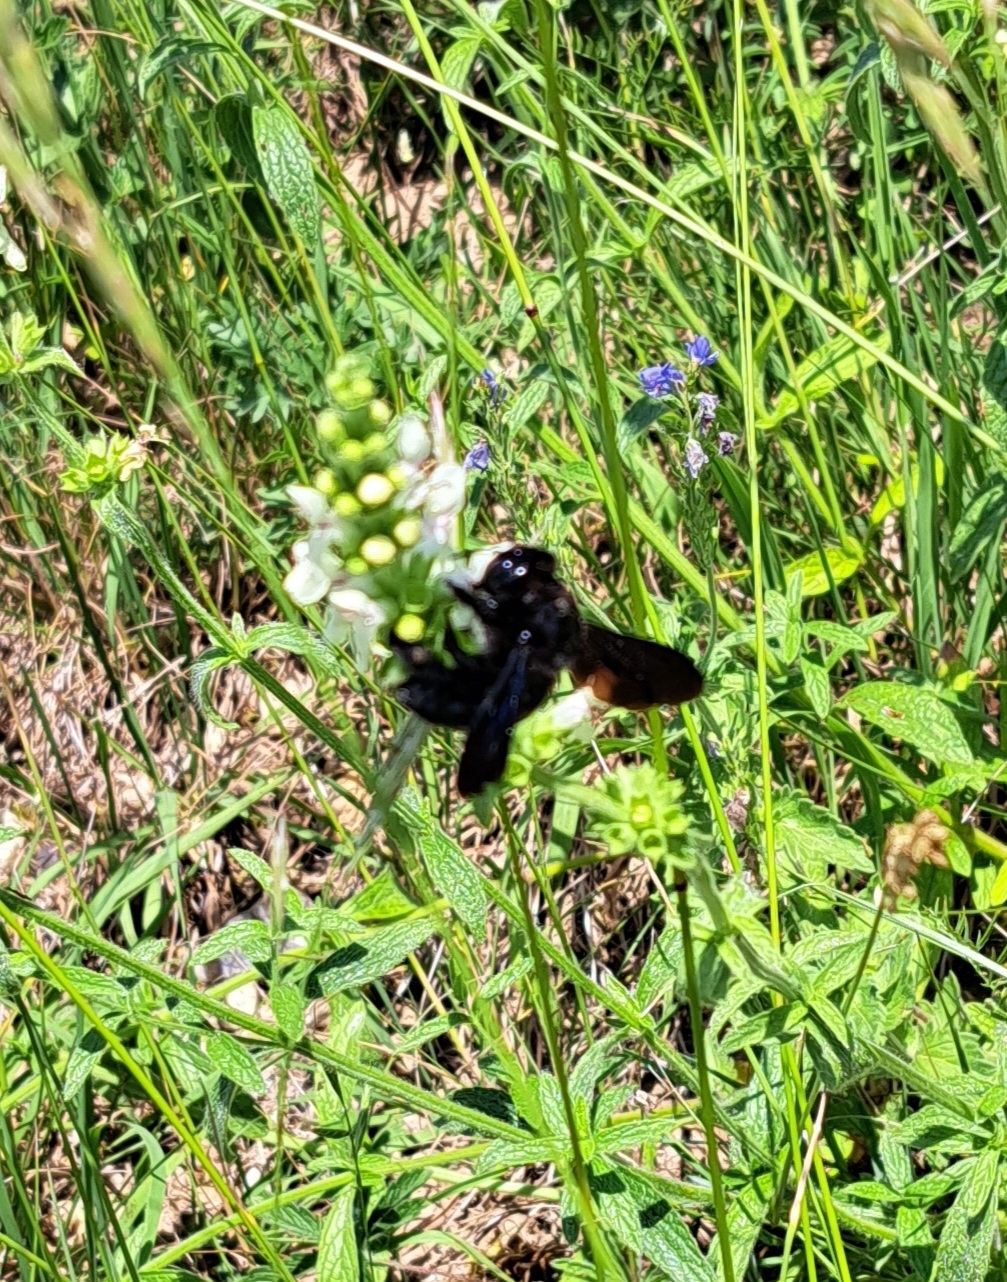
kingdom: Animalia
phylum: Arthropoda
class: Insecta
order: Hymenoptera
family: Apidae
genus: Xylocopa
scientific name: Xylocopa
